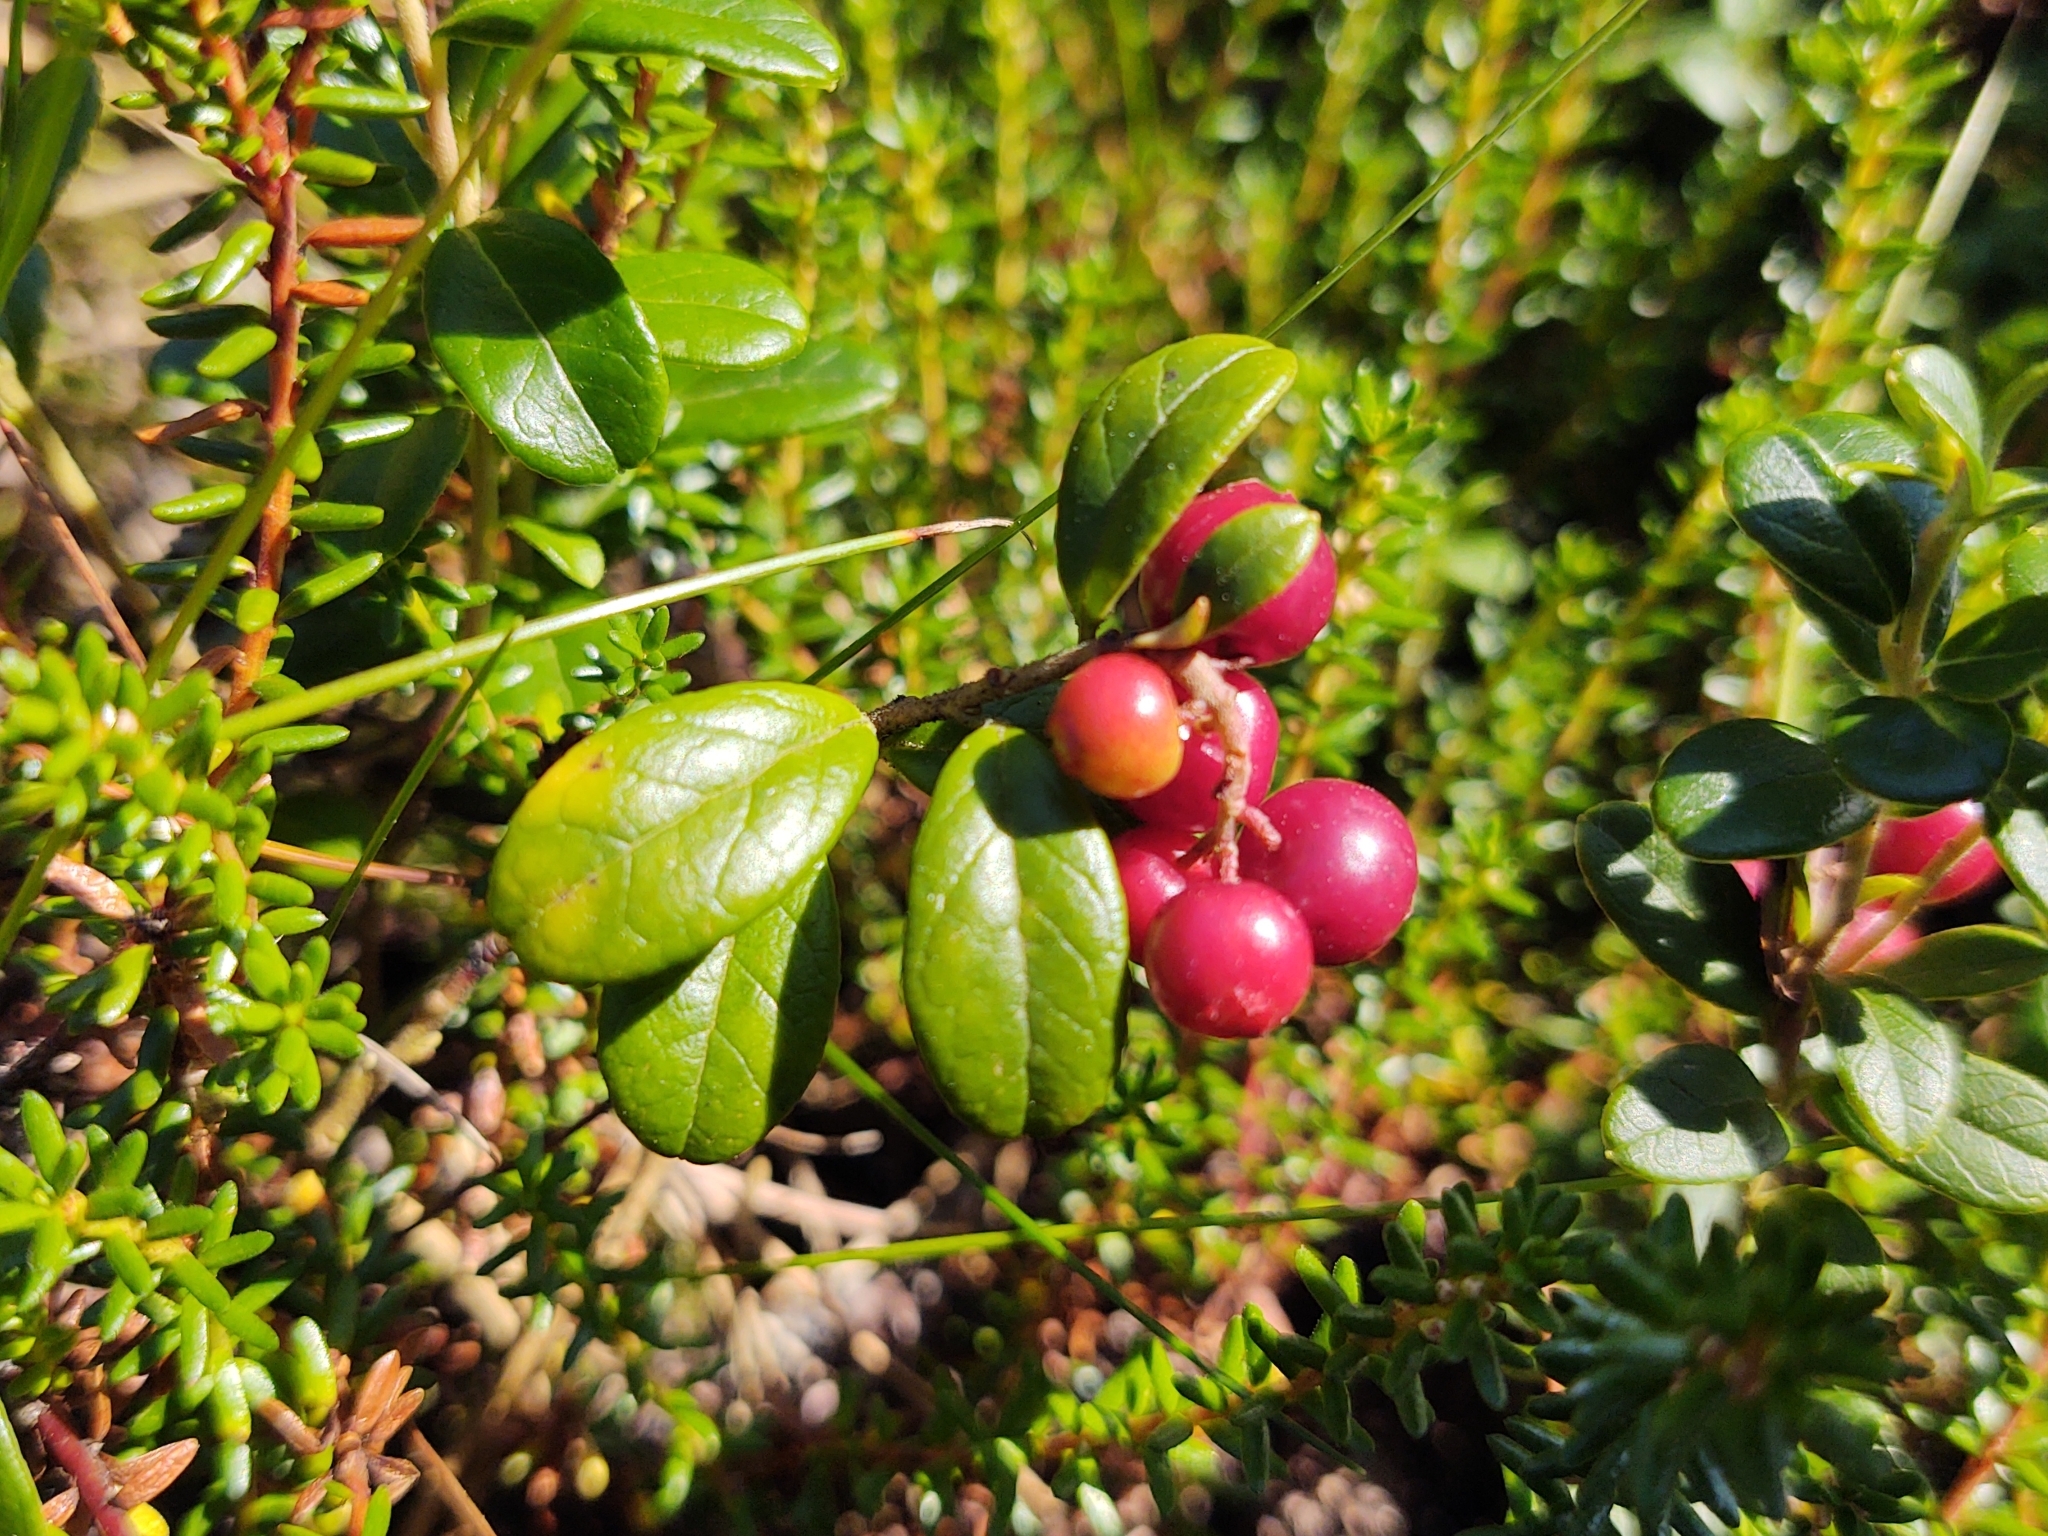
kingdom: Plantae
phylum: Tracheophyta
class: Magnoliopsida
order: Ericales
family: Ericaceae
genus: Vaccinium
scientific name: Vaccinium vitis-idaea
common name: Cowberry
